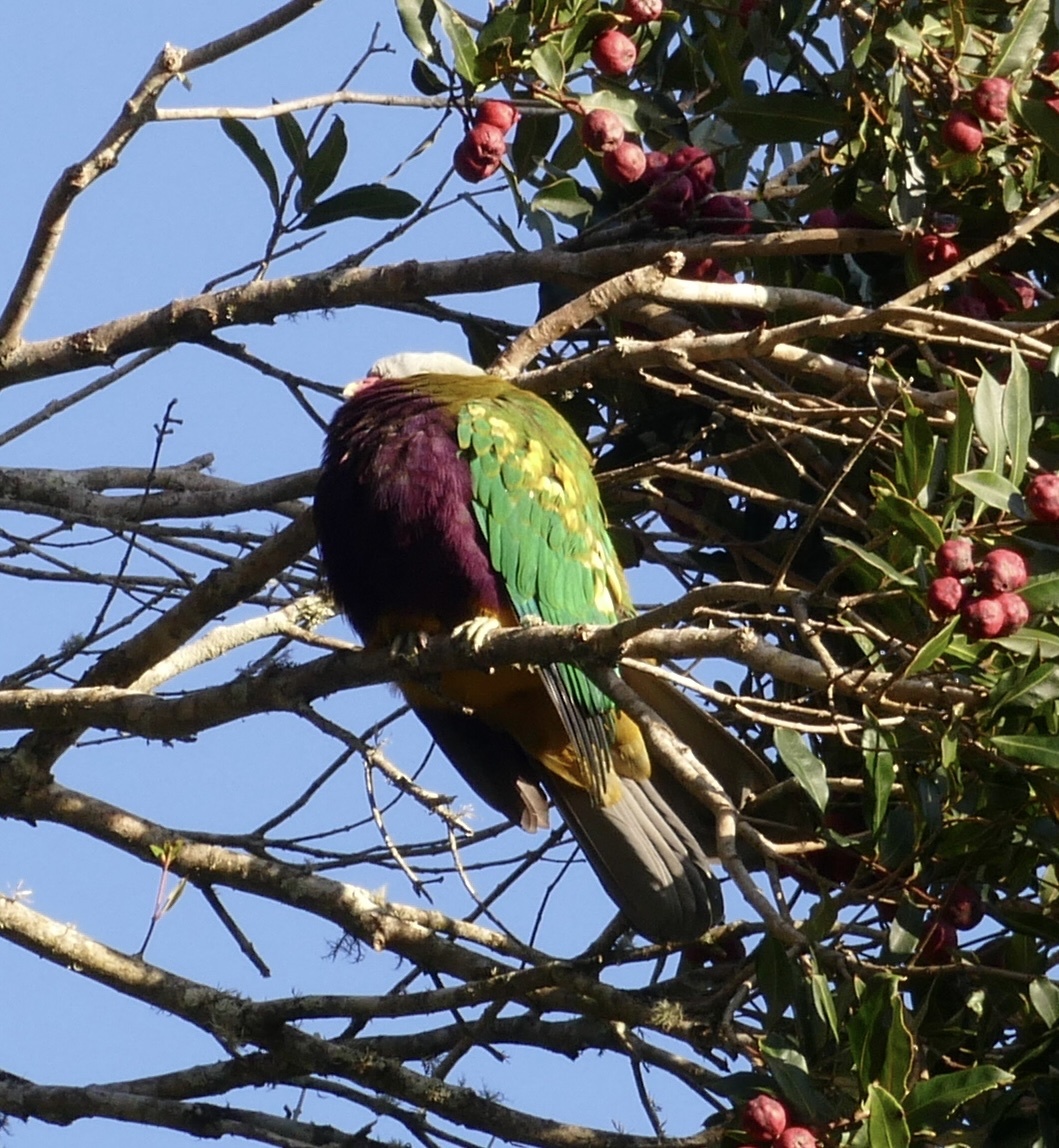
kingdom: Animalia
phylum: Chordata
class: Aves
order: Columbiformes
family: Columbidae
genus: Ptilinopus
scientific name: Ptilinopus magnificus
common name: Wompoo fruit dove
